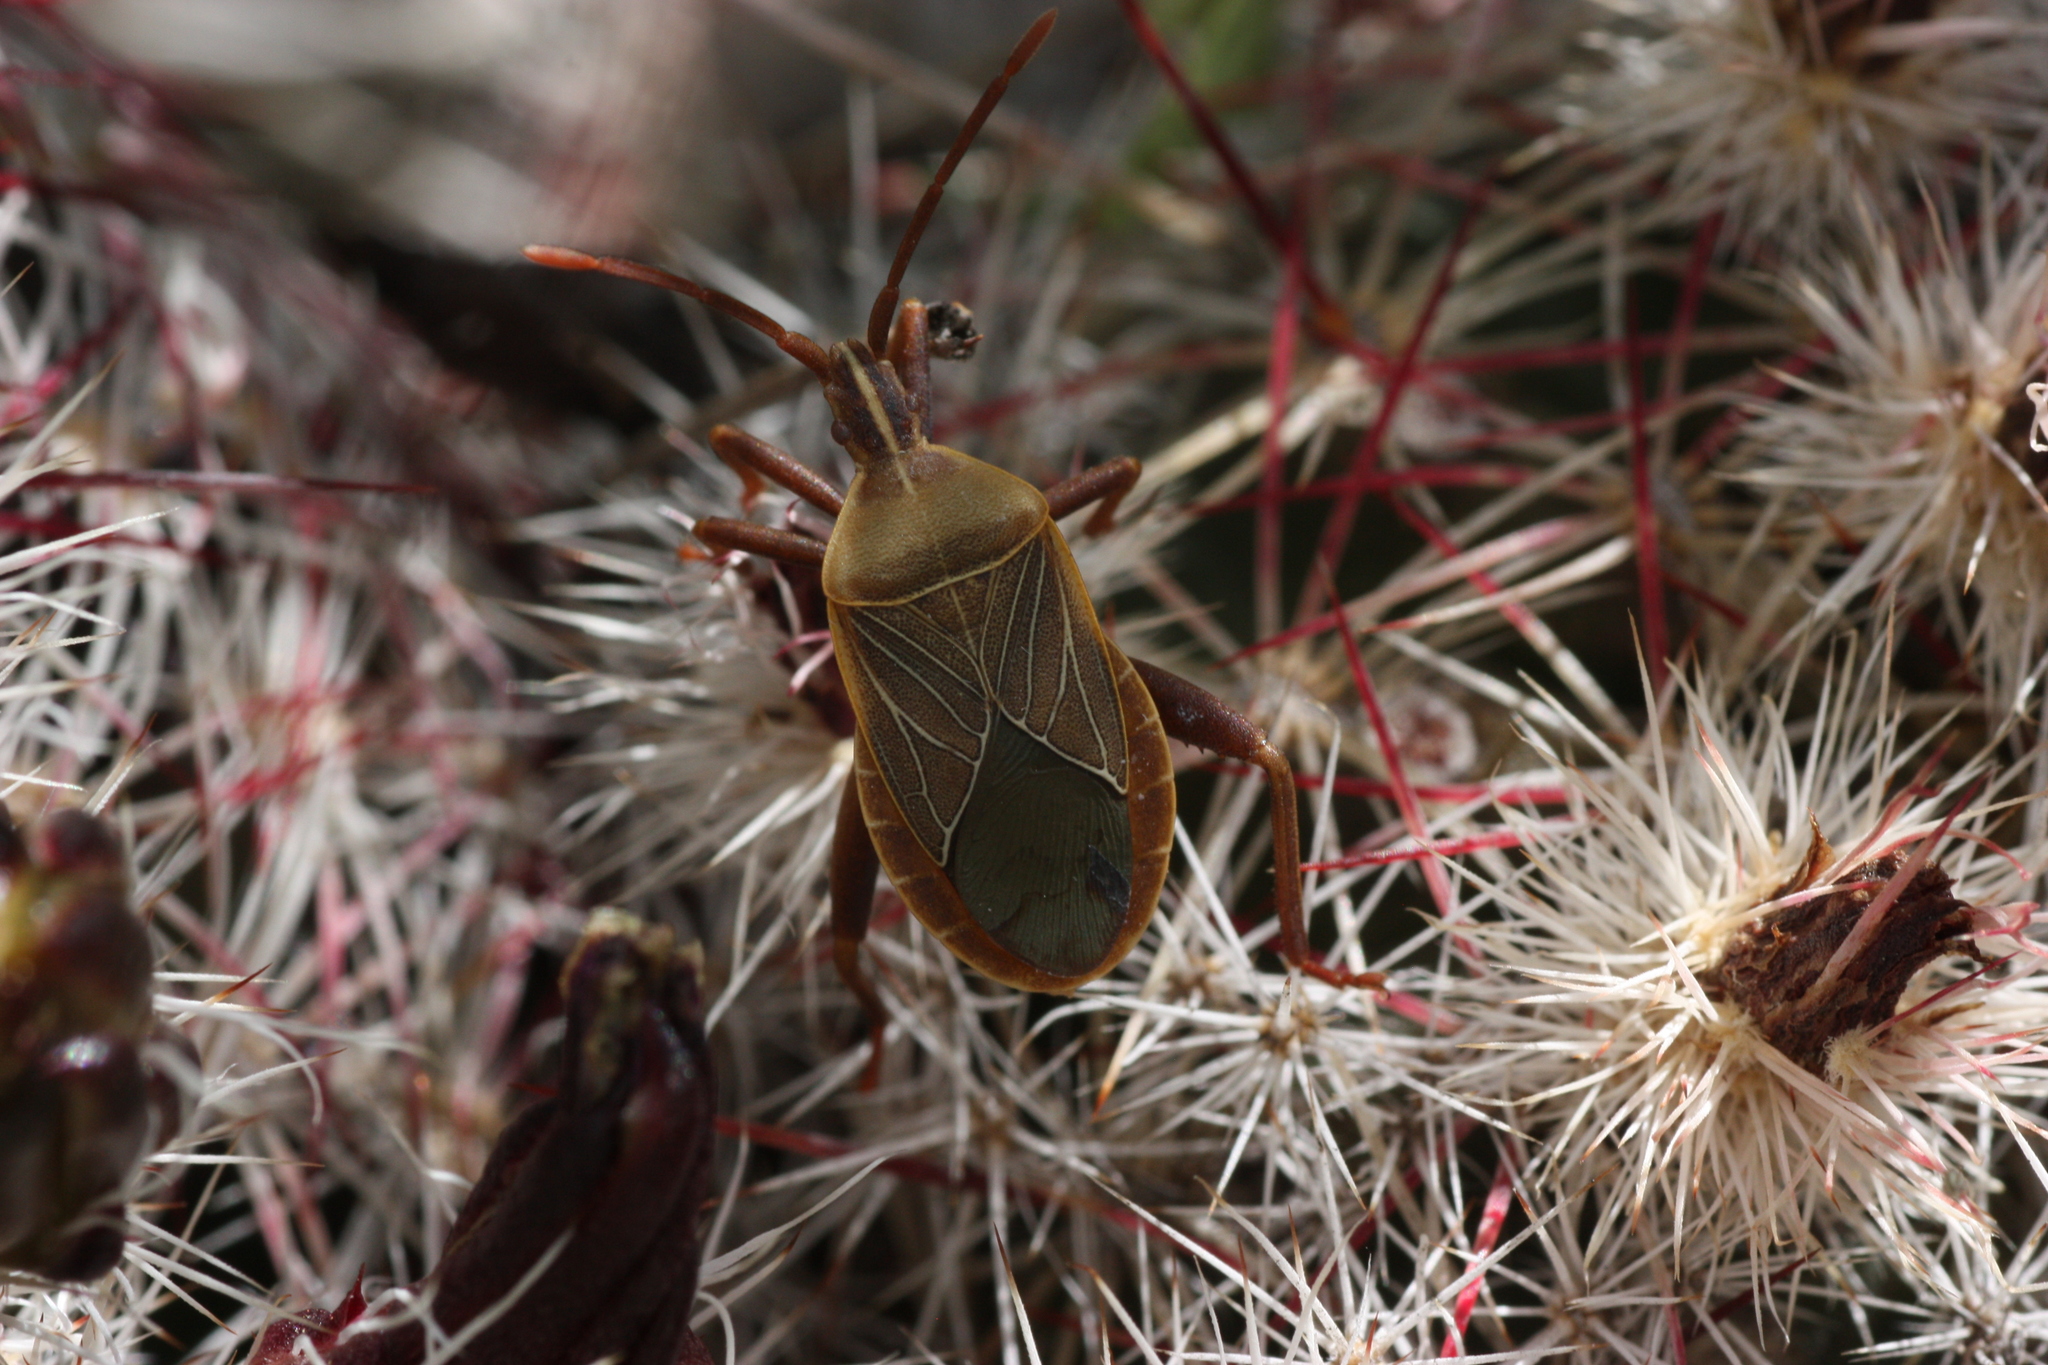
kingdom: Animalia
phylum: Arthropoda
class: Insecta
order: Hemiptera
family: Coreidae
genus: Chelinidea
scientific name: Chelinidea vittiger
